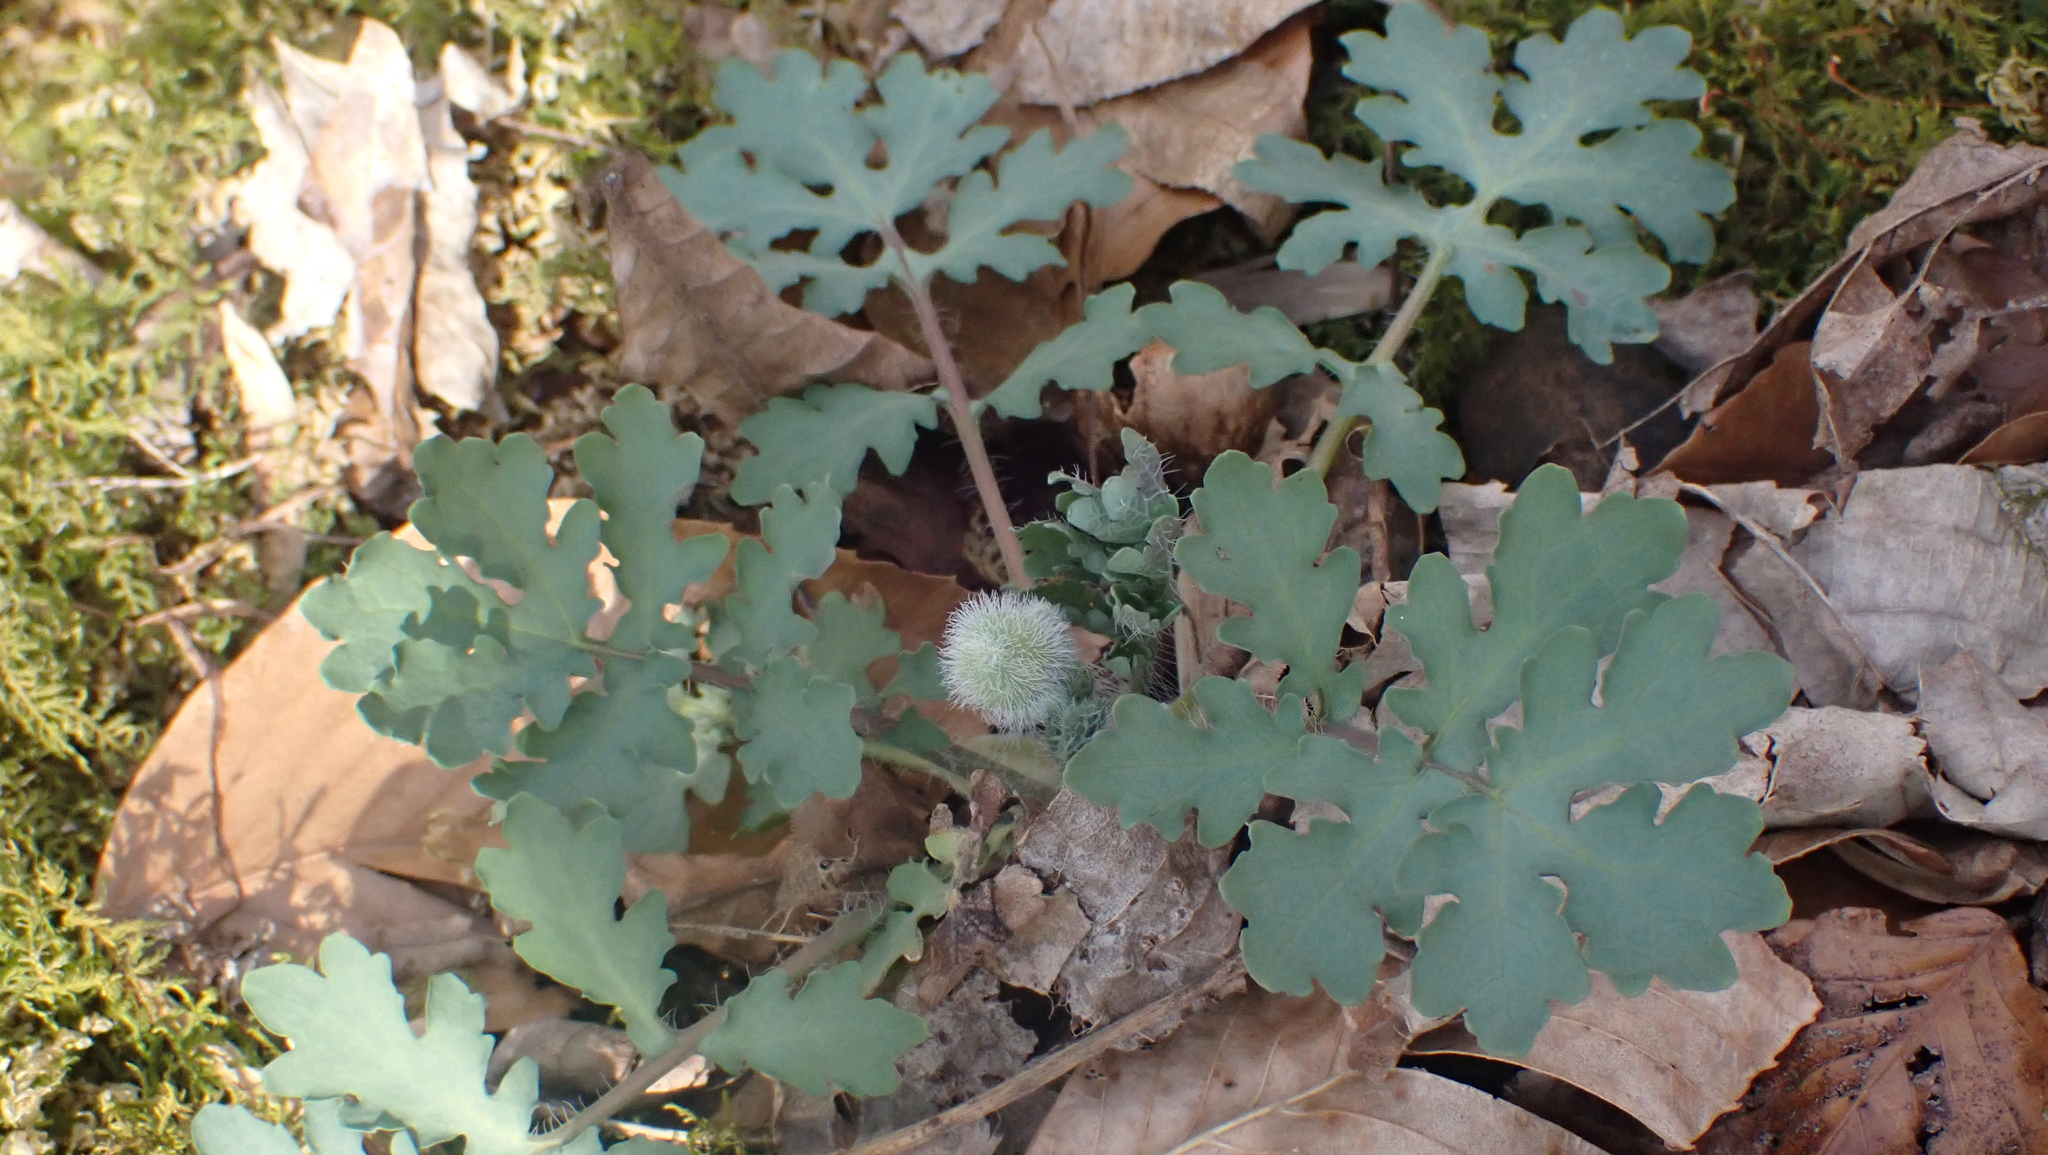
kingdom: Plantae
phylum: Tracheophyta
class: Magnoliopsida
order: Ranunculales
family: Papaveraceae
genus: Stylophorum
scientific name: Stylophorum diphyllum
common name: Celandine poppy
